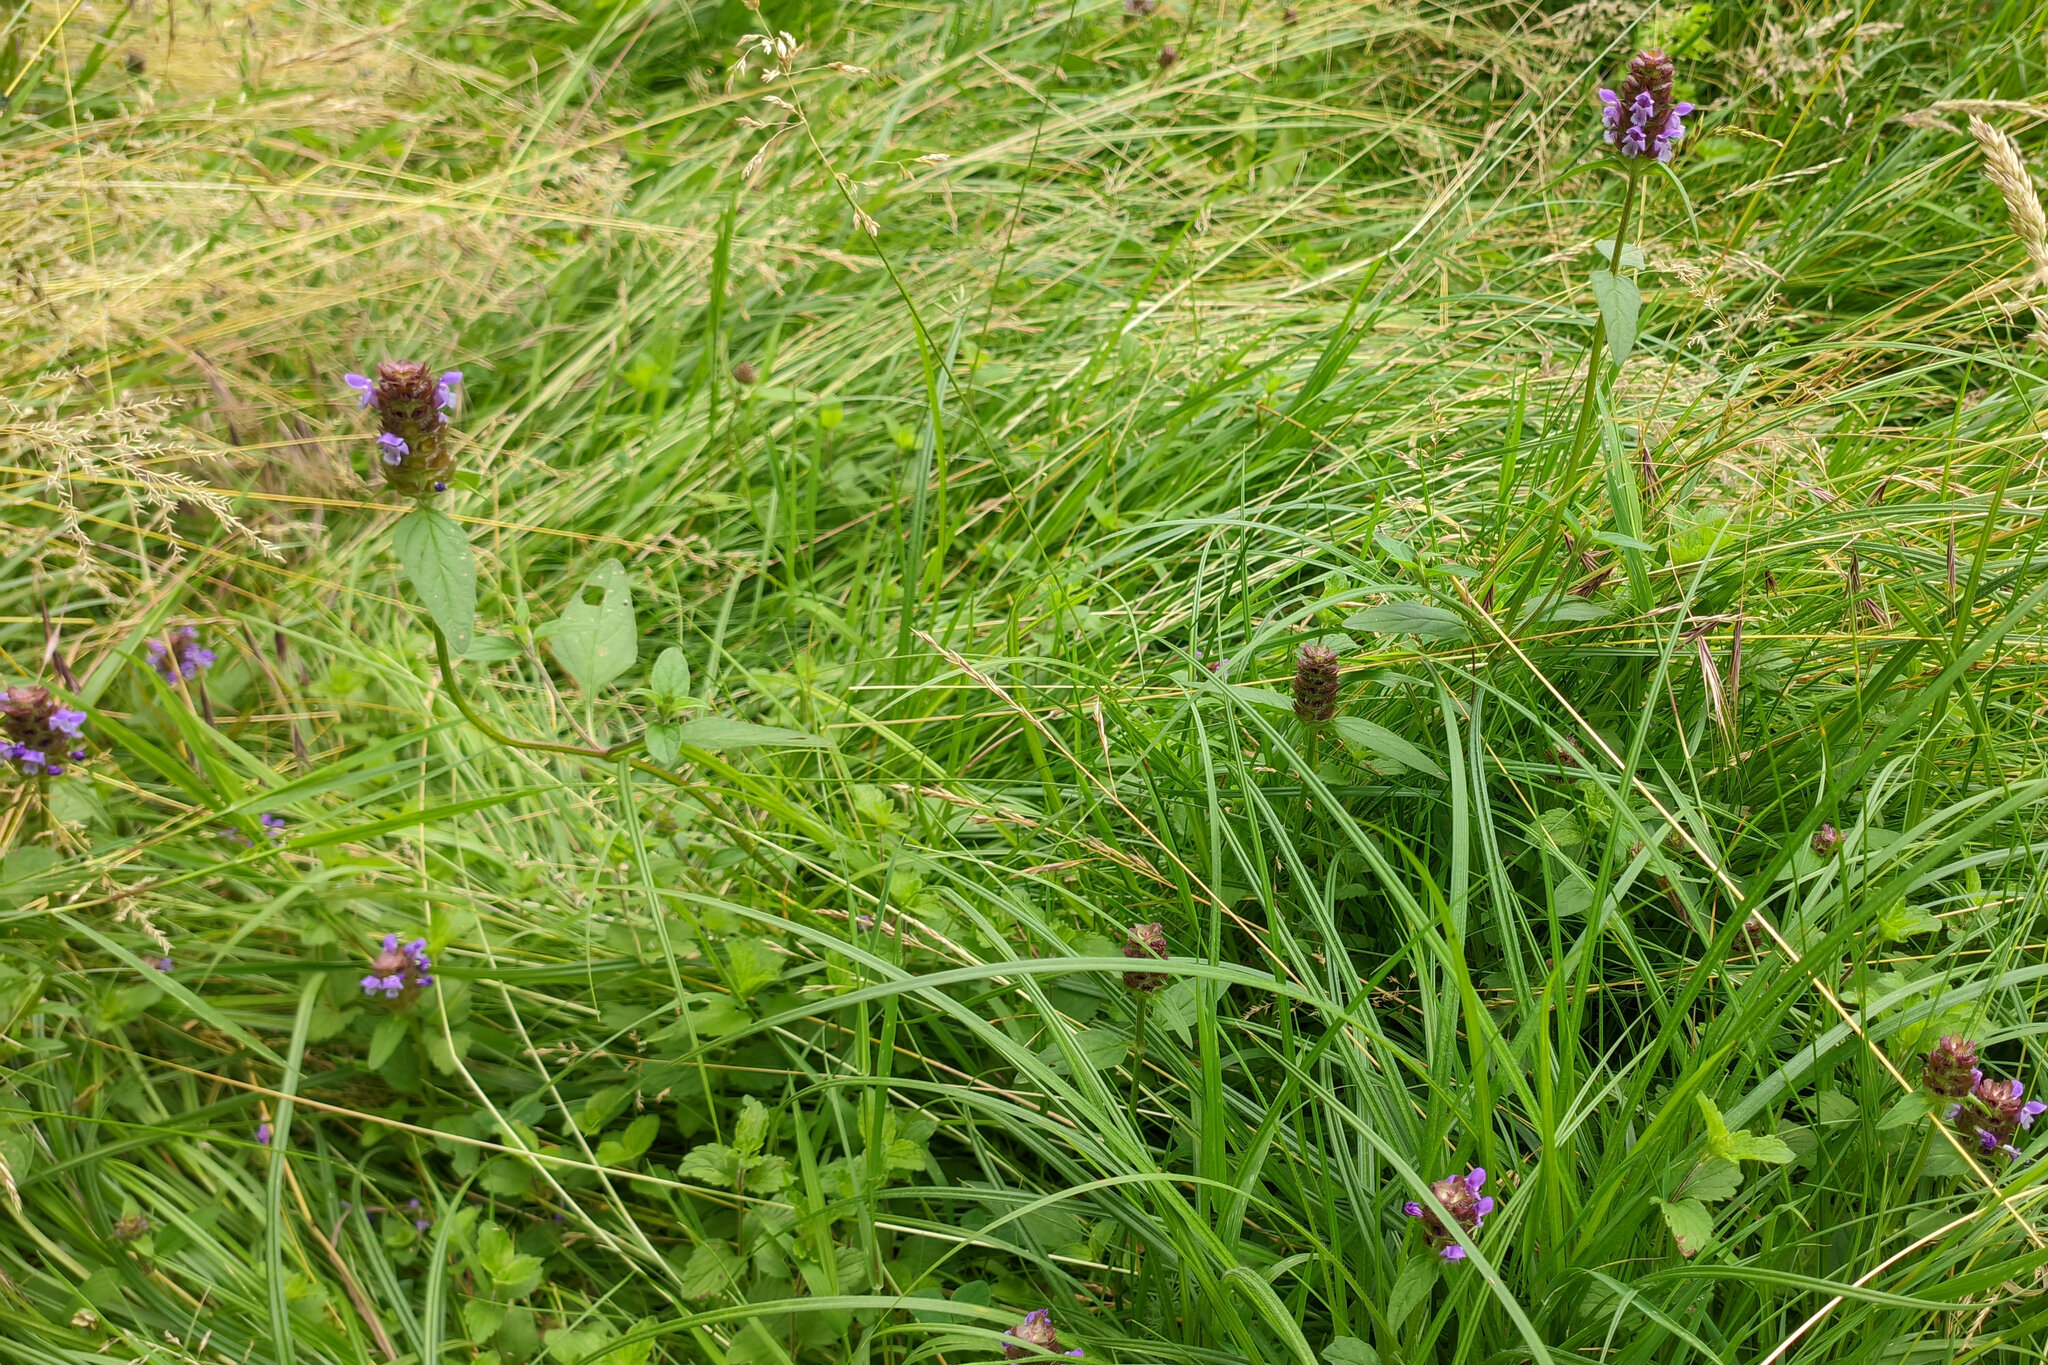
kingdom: Plantae
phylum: Tracheophyta
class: Magnoliopsida
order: Lamiales
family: Lamiaceae
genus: Prunella
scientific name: Prunella vulgaris
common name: Heal-all
